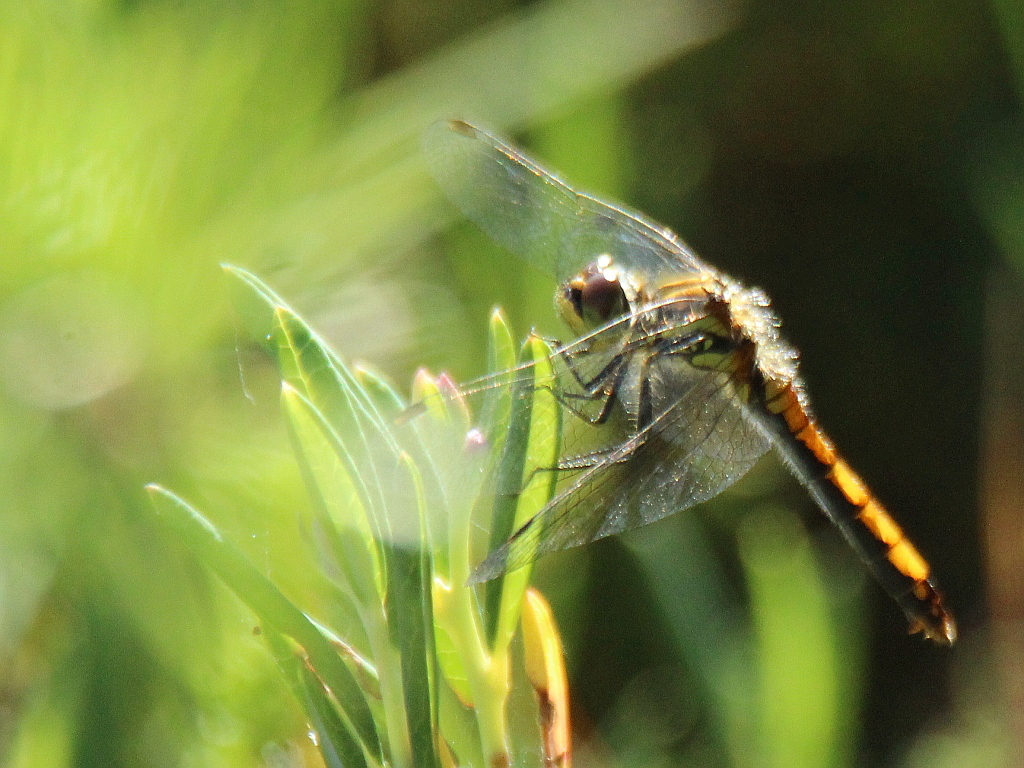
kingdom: Animalia
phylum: Arthropoda
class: Insecta
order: Odonata
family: Libellulidae
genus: Sympetrum
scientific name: Sympetrum danae
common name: Black darter
